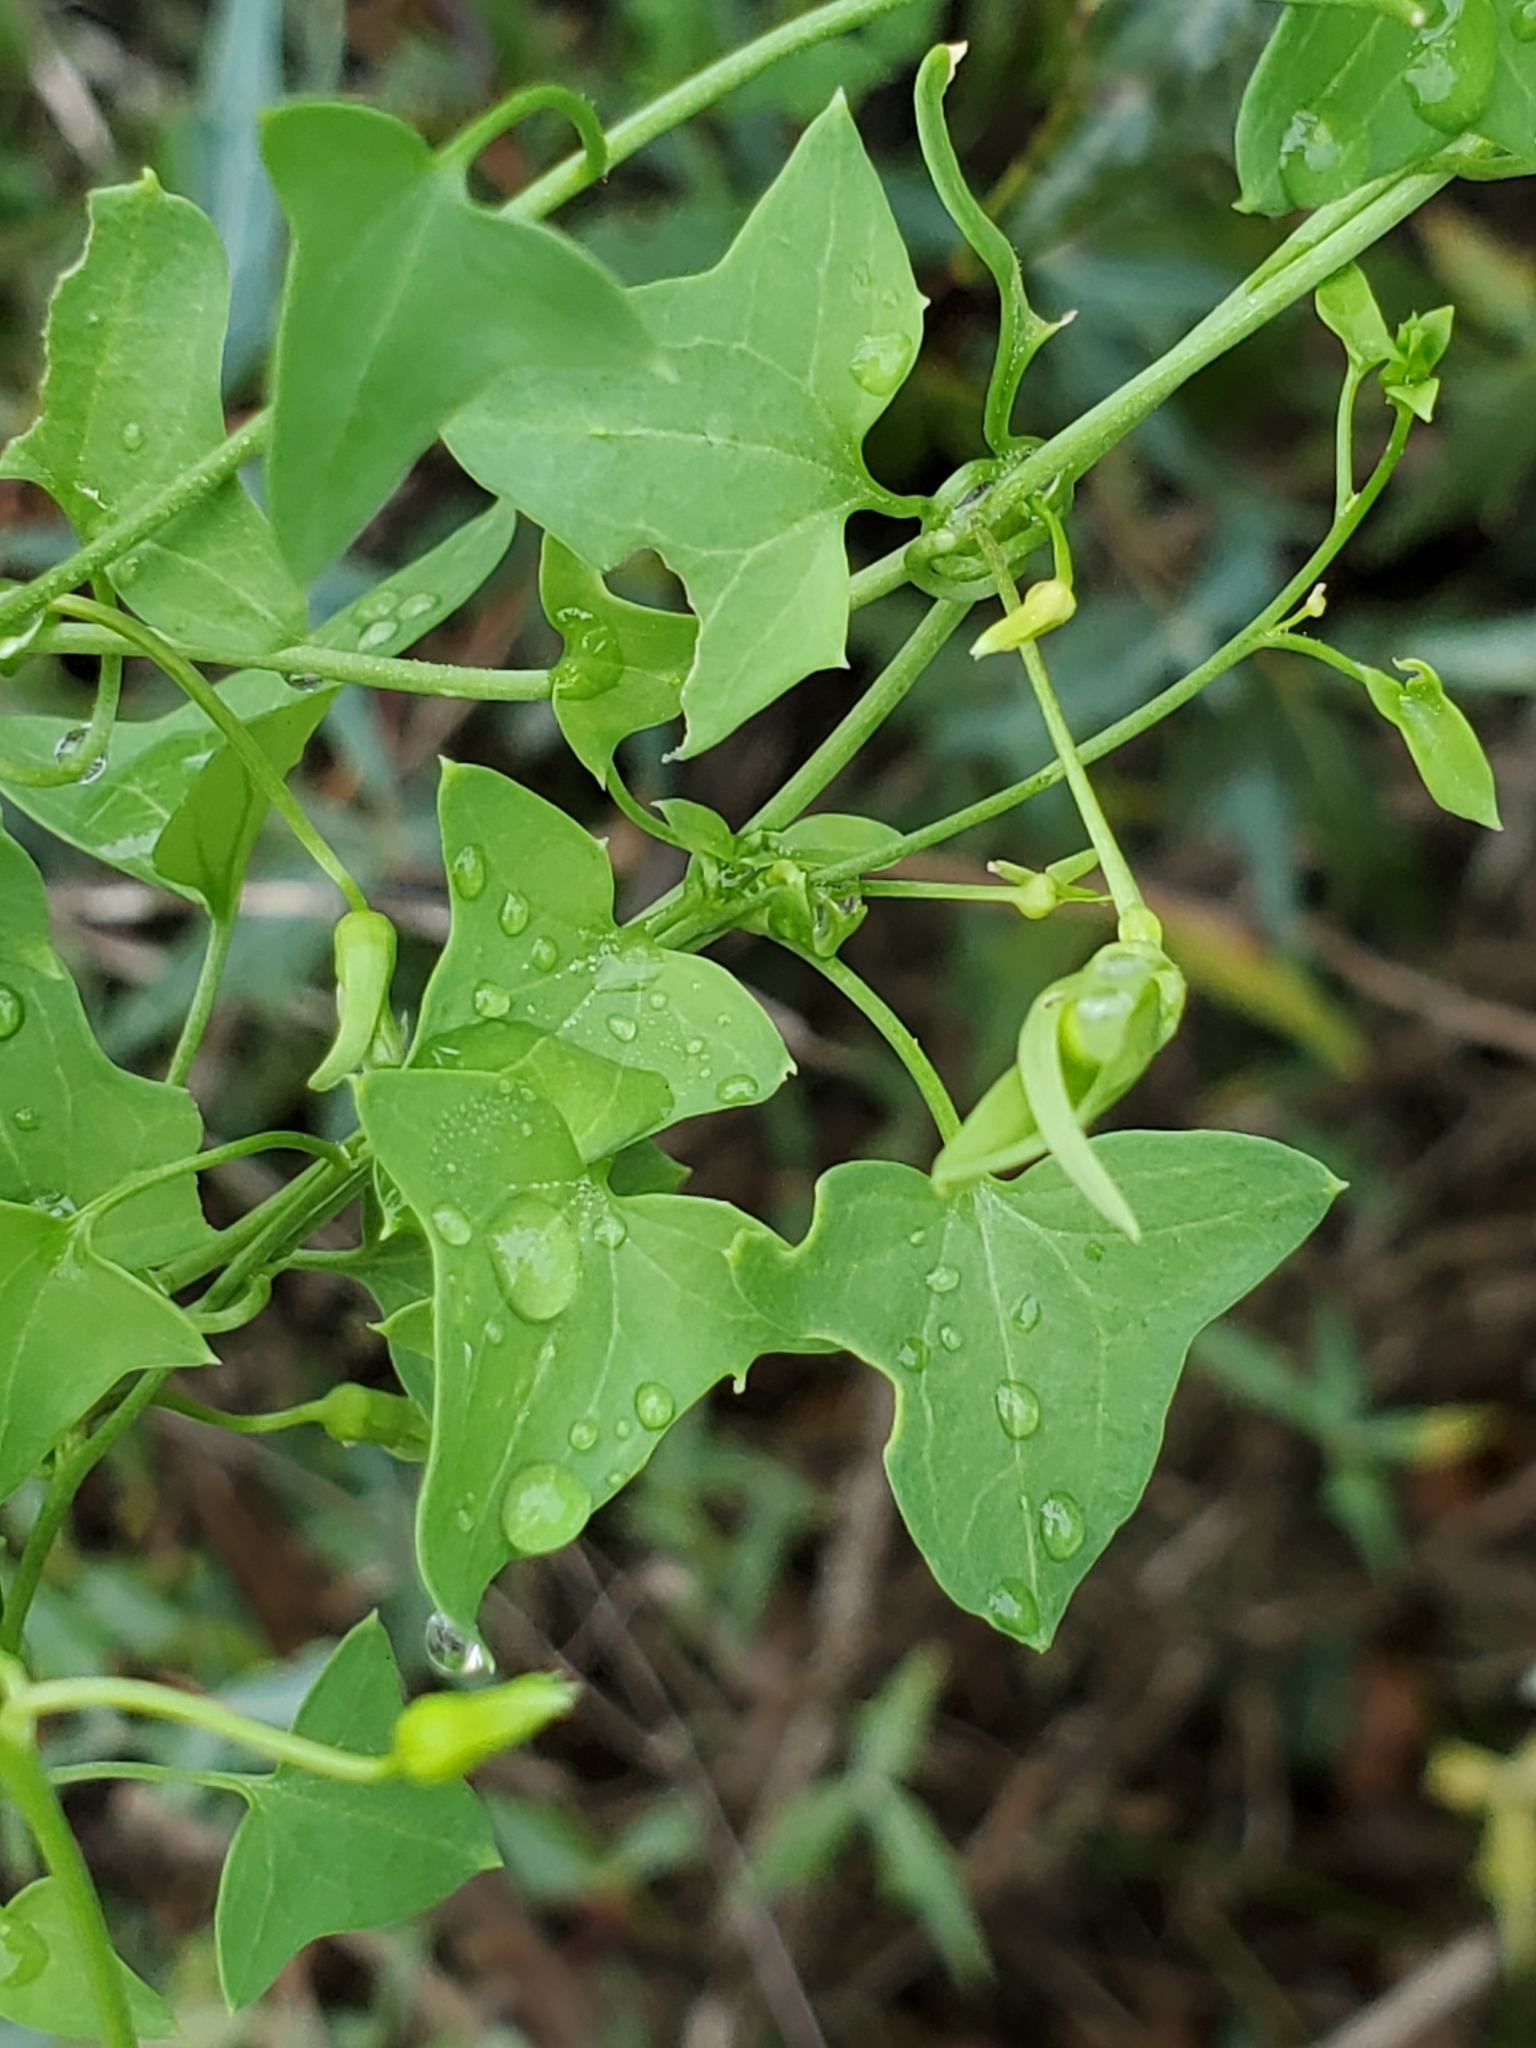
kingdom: Plantae
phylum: Tracheophyta
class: Magnoliopsida
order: Lamiales
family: Plantaginaceae
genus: Maurandella
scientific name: Maurandella antirrhiniflora
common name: Violet twining-snapdragon
